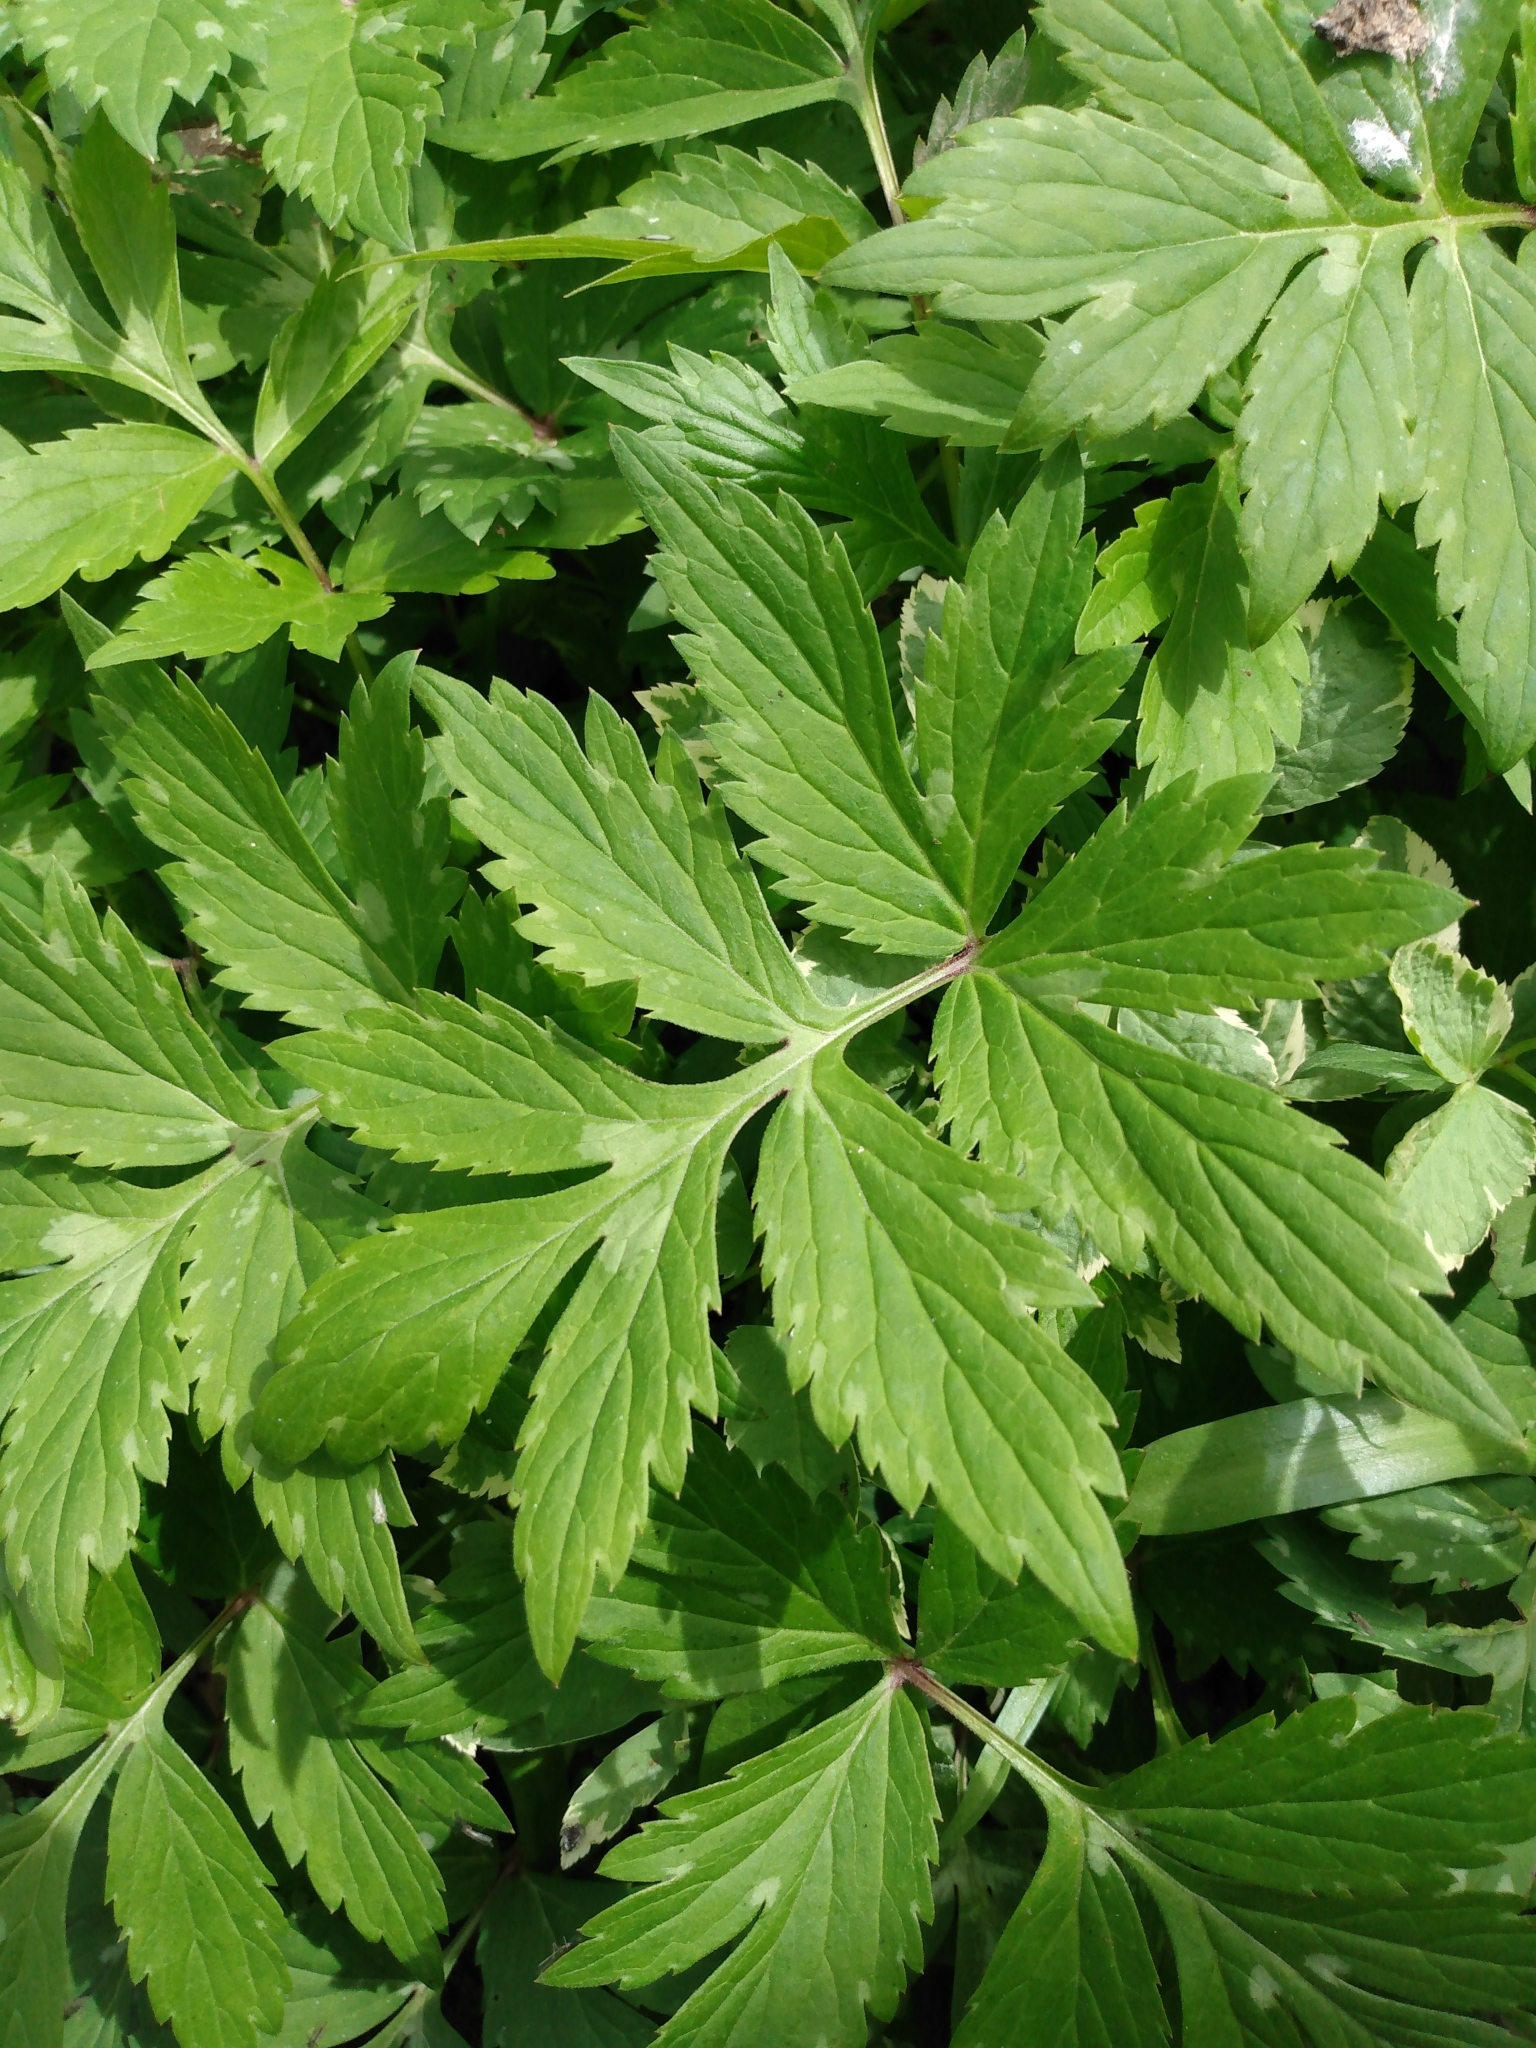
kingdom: Plantae
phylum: Tracheophyta
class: Magnoliopsida
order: Boraginales
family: Hydrophyllaceae
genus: Hydrophyllum
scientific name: Hydrophyllum virginianum
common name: Virginia waterleaf
